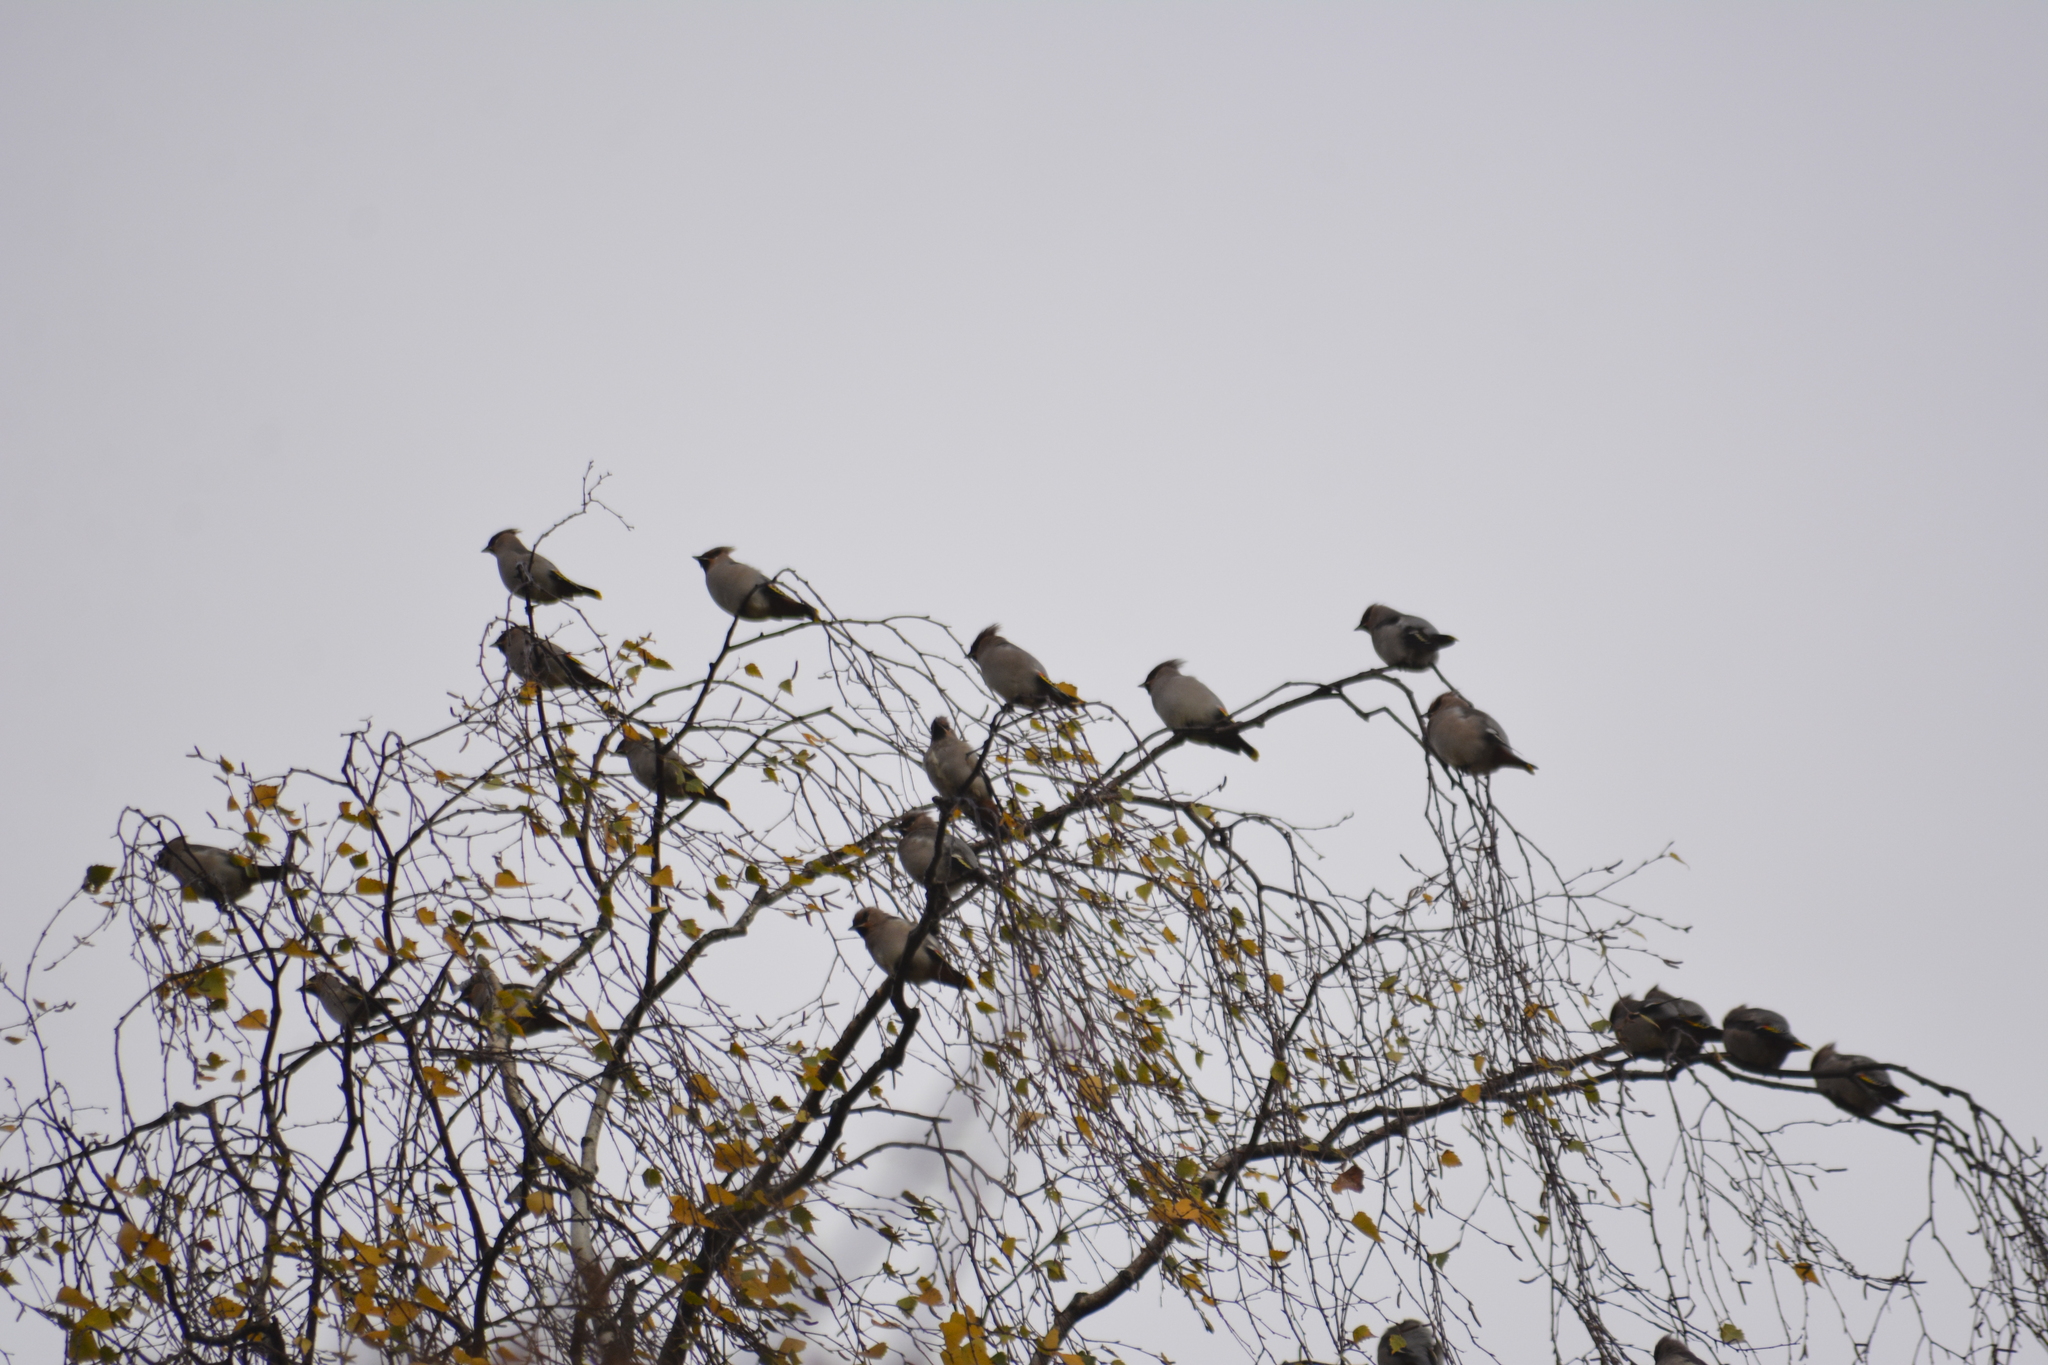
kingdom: Animalia
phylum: Chordata
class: Aves
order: Passeriformes
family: Bombycillidae
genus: Bombycilla
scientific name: Bombycilla garrulus
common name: Bohemian waxwing
